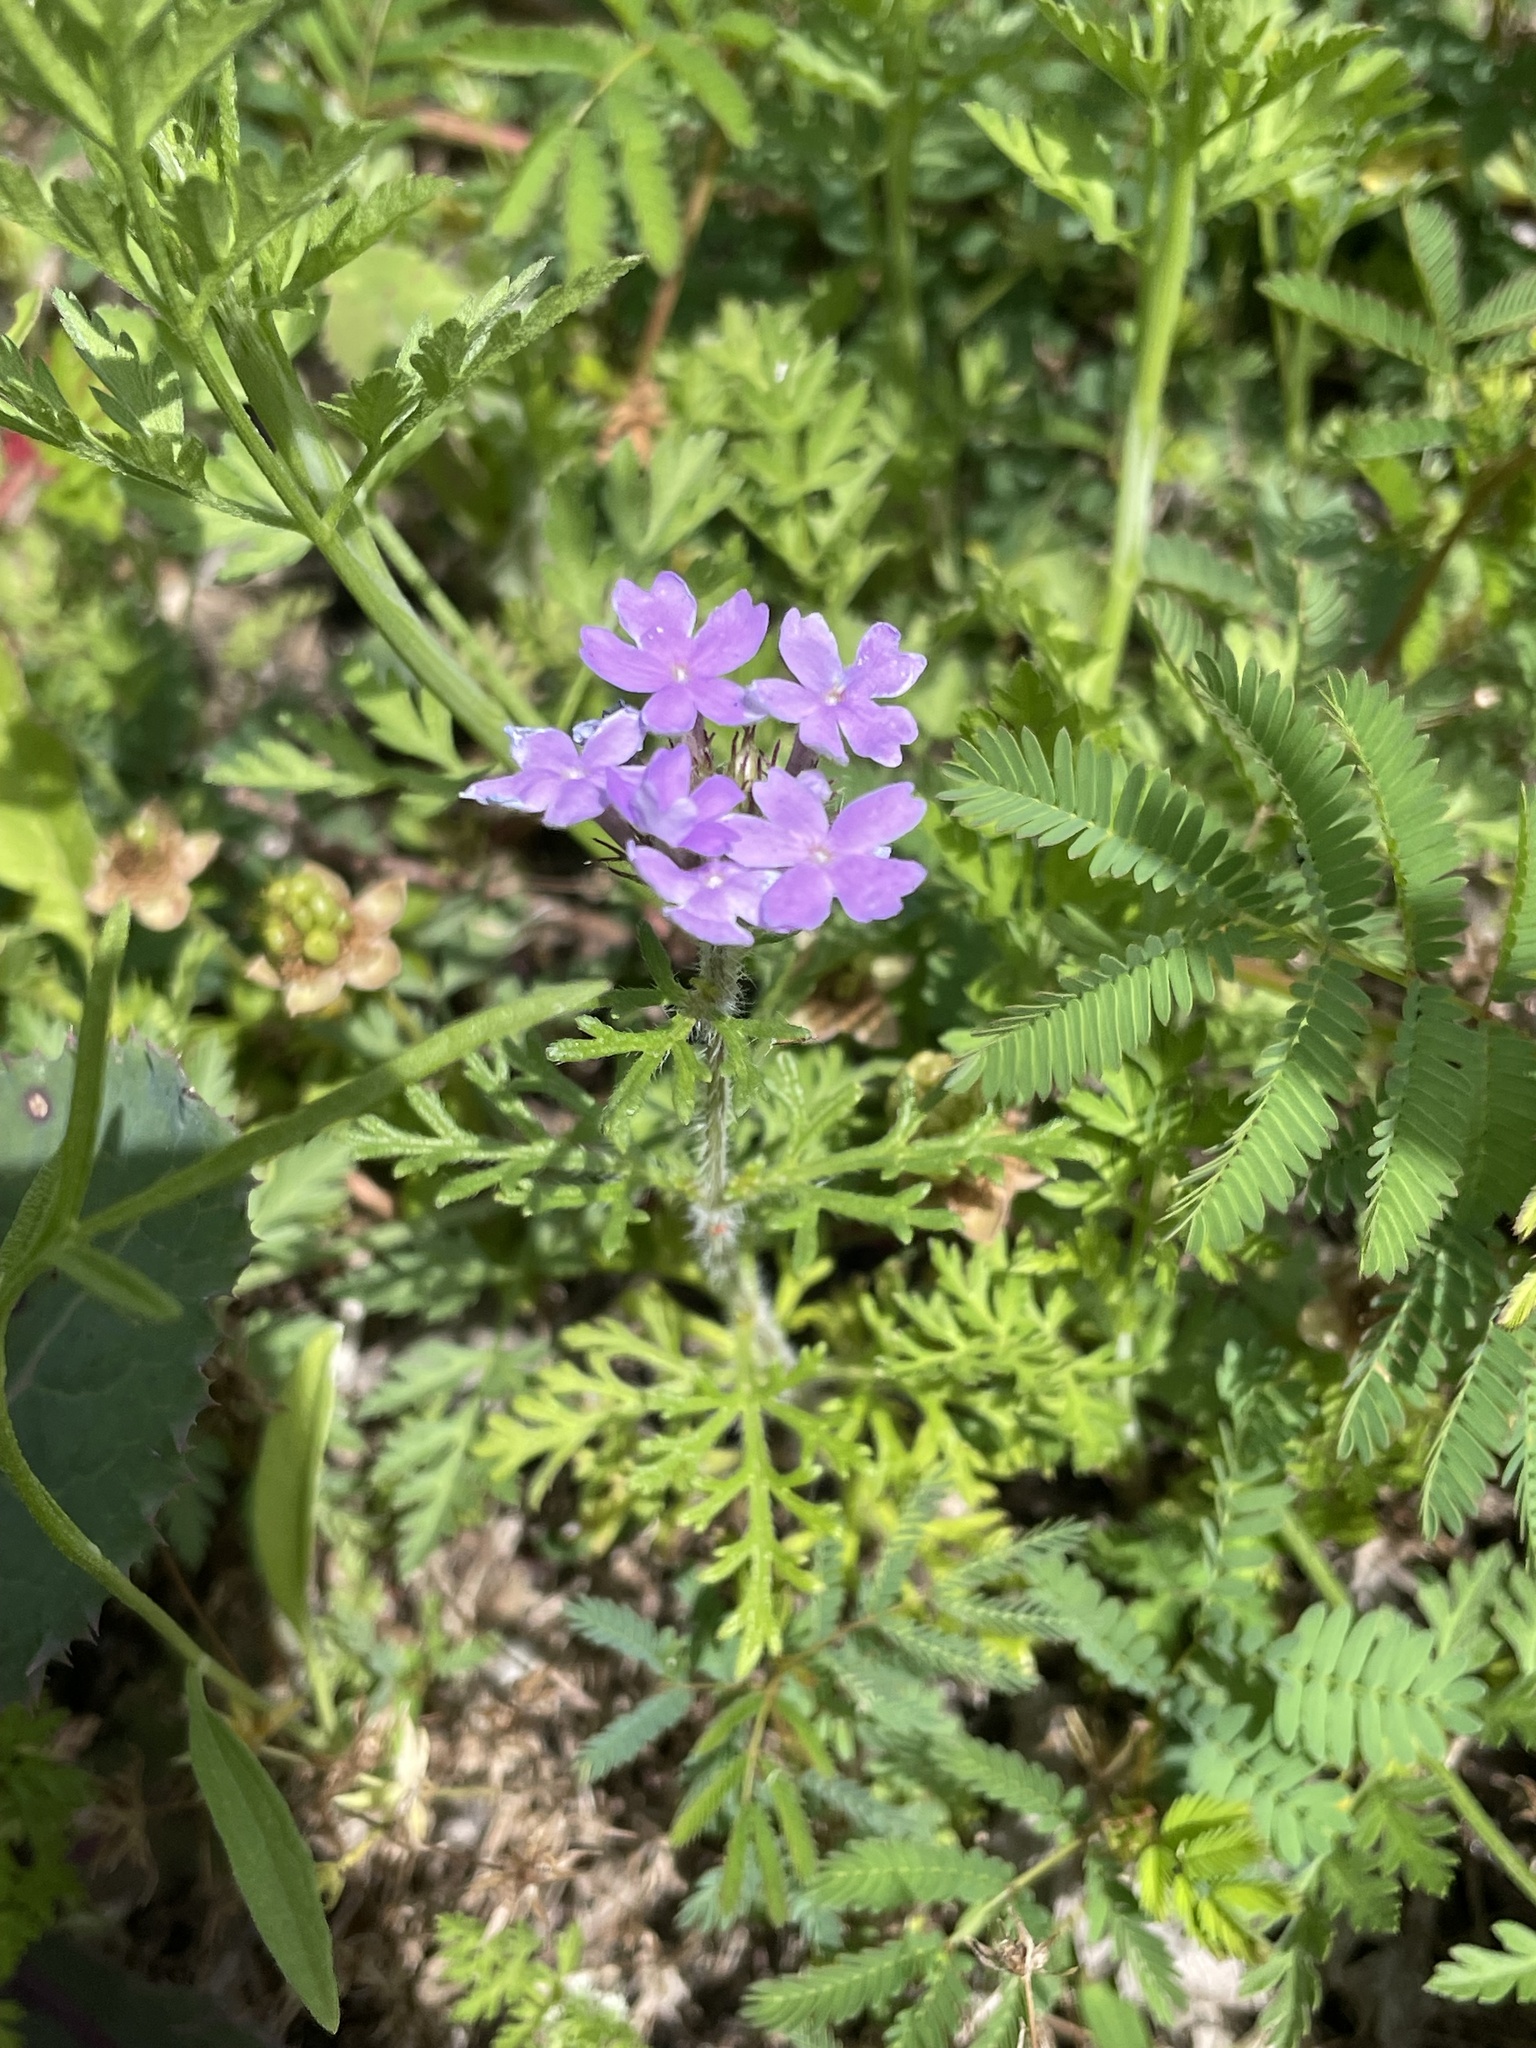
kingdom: Plantae
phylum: Tracheophyta
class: Magnoliopsida
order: Lamiales
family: Verbenaceae
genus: Verbena
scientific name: Verbena bipinnatifida
